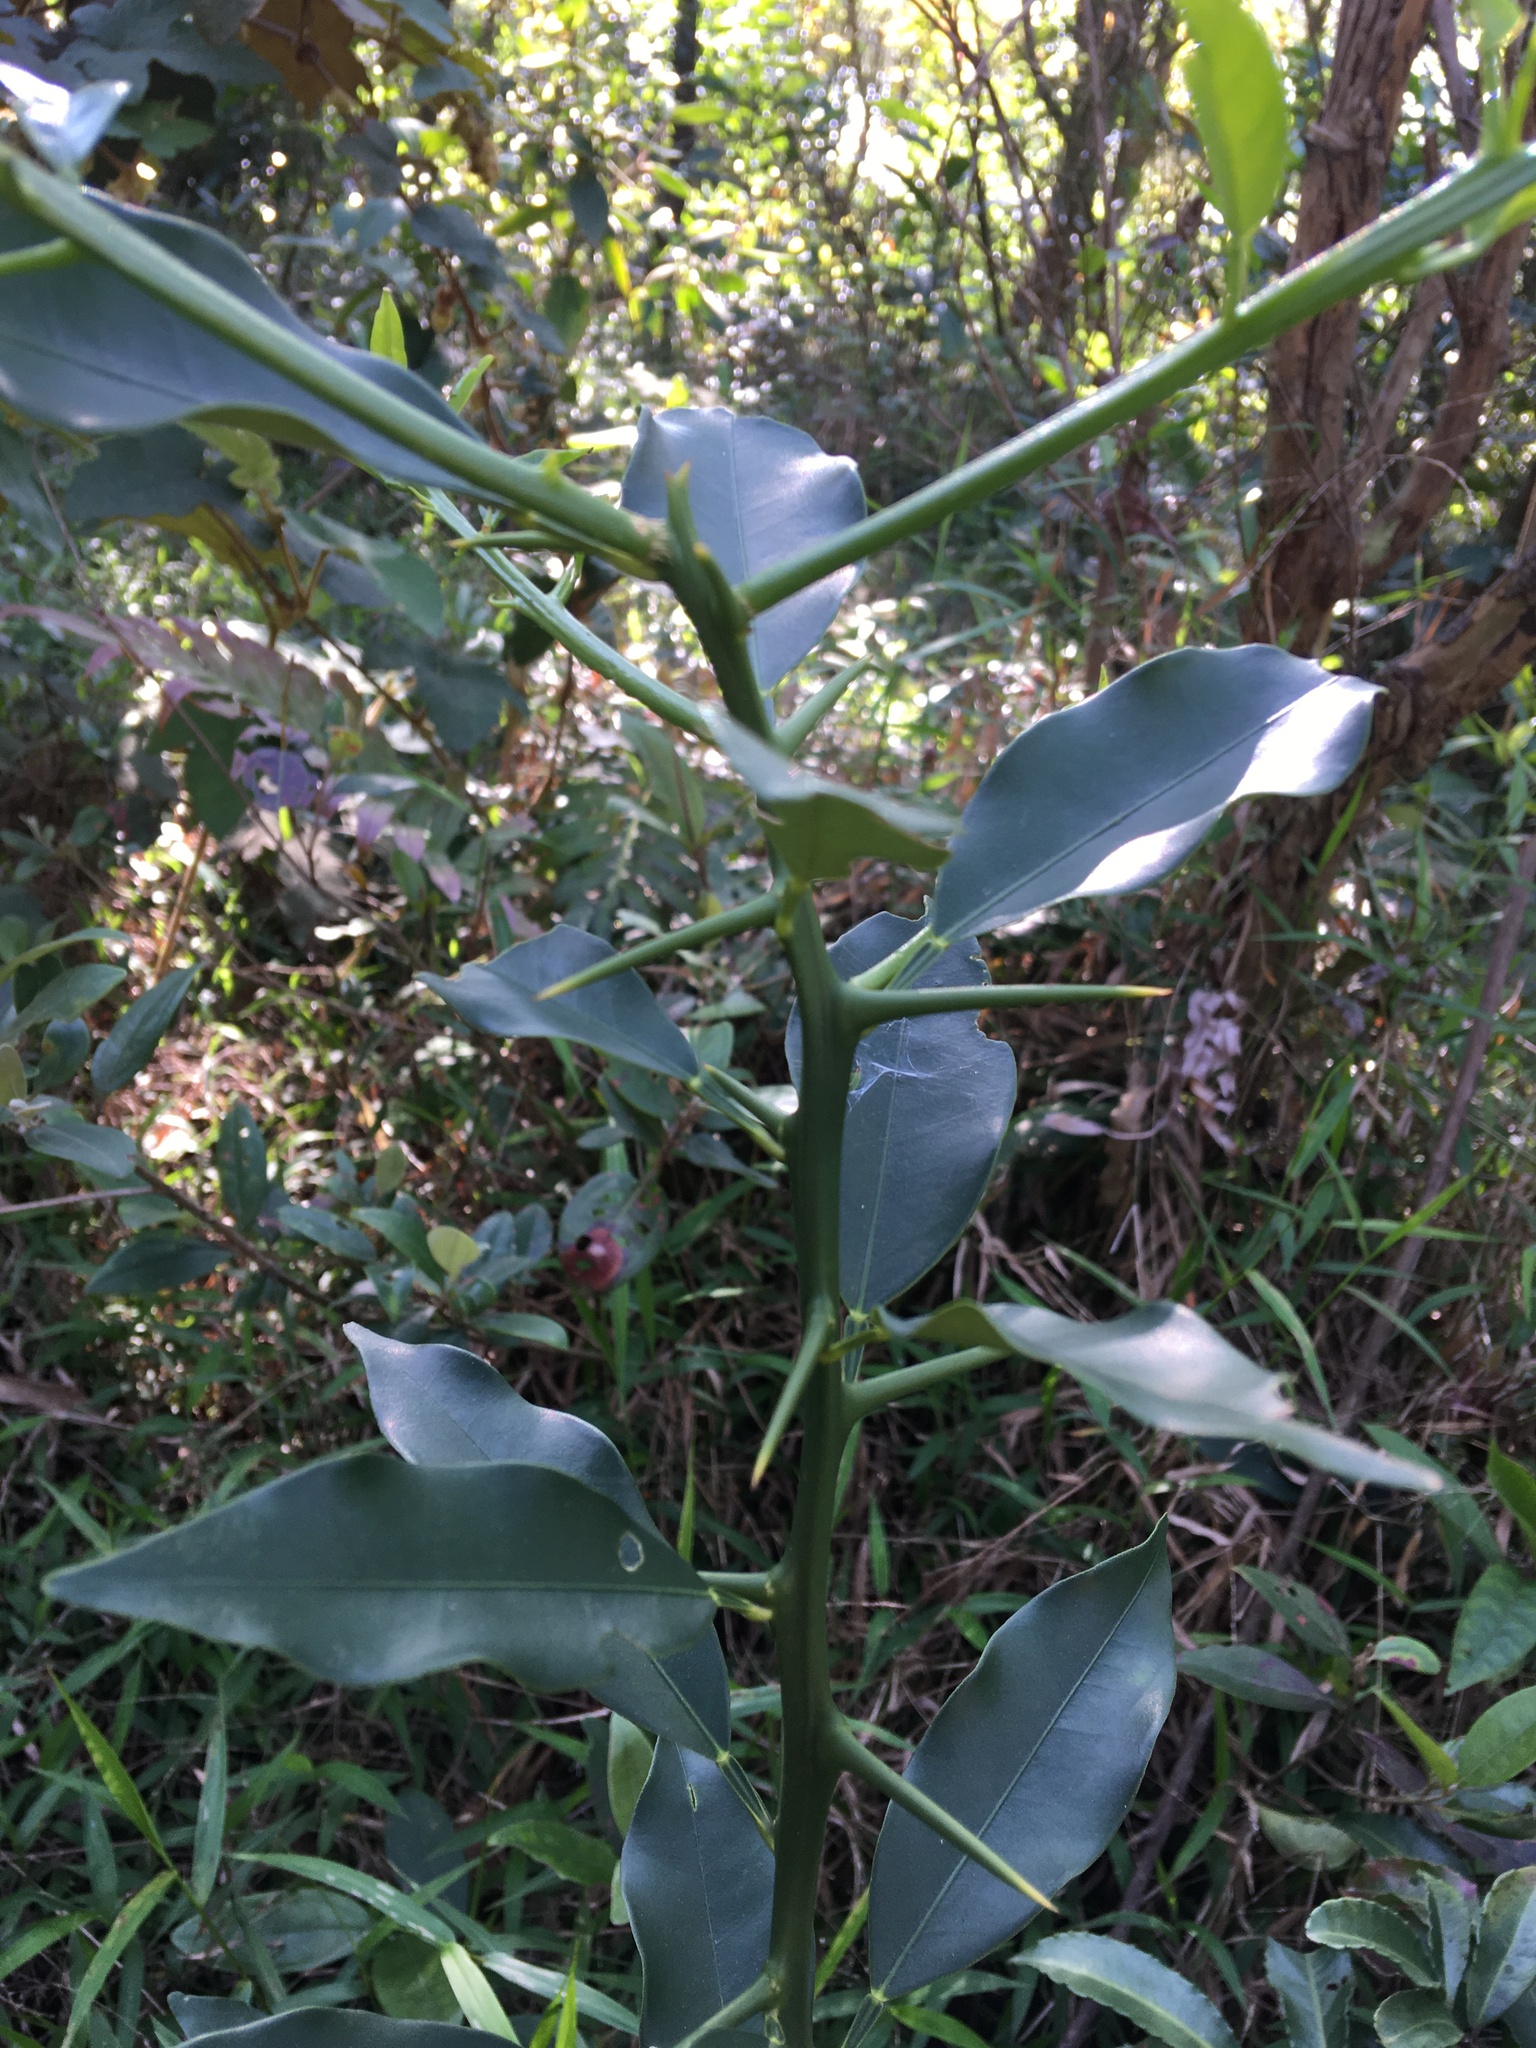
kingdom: Plantae
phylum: Tracheophyta
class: Magnoliopsida
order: Sapindales
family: Rutaceae
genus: Citrus
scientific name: Citrus japonica
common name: Kumquat
